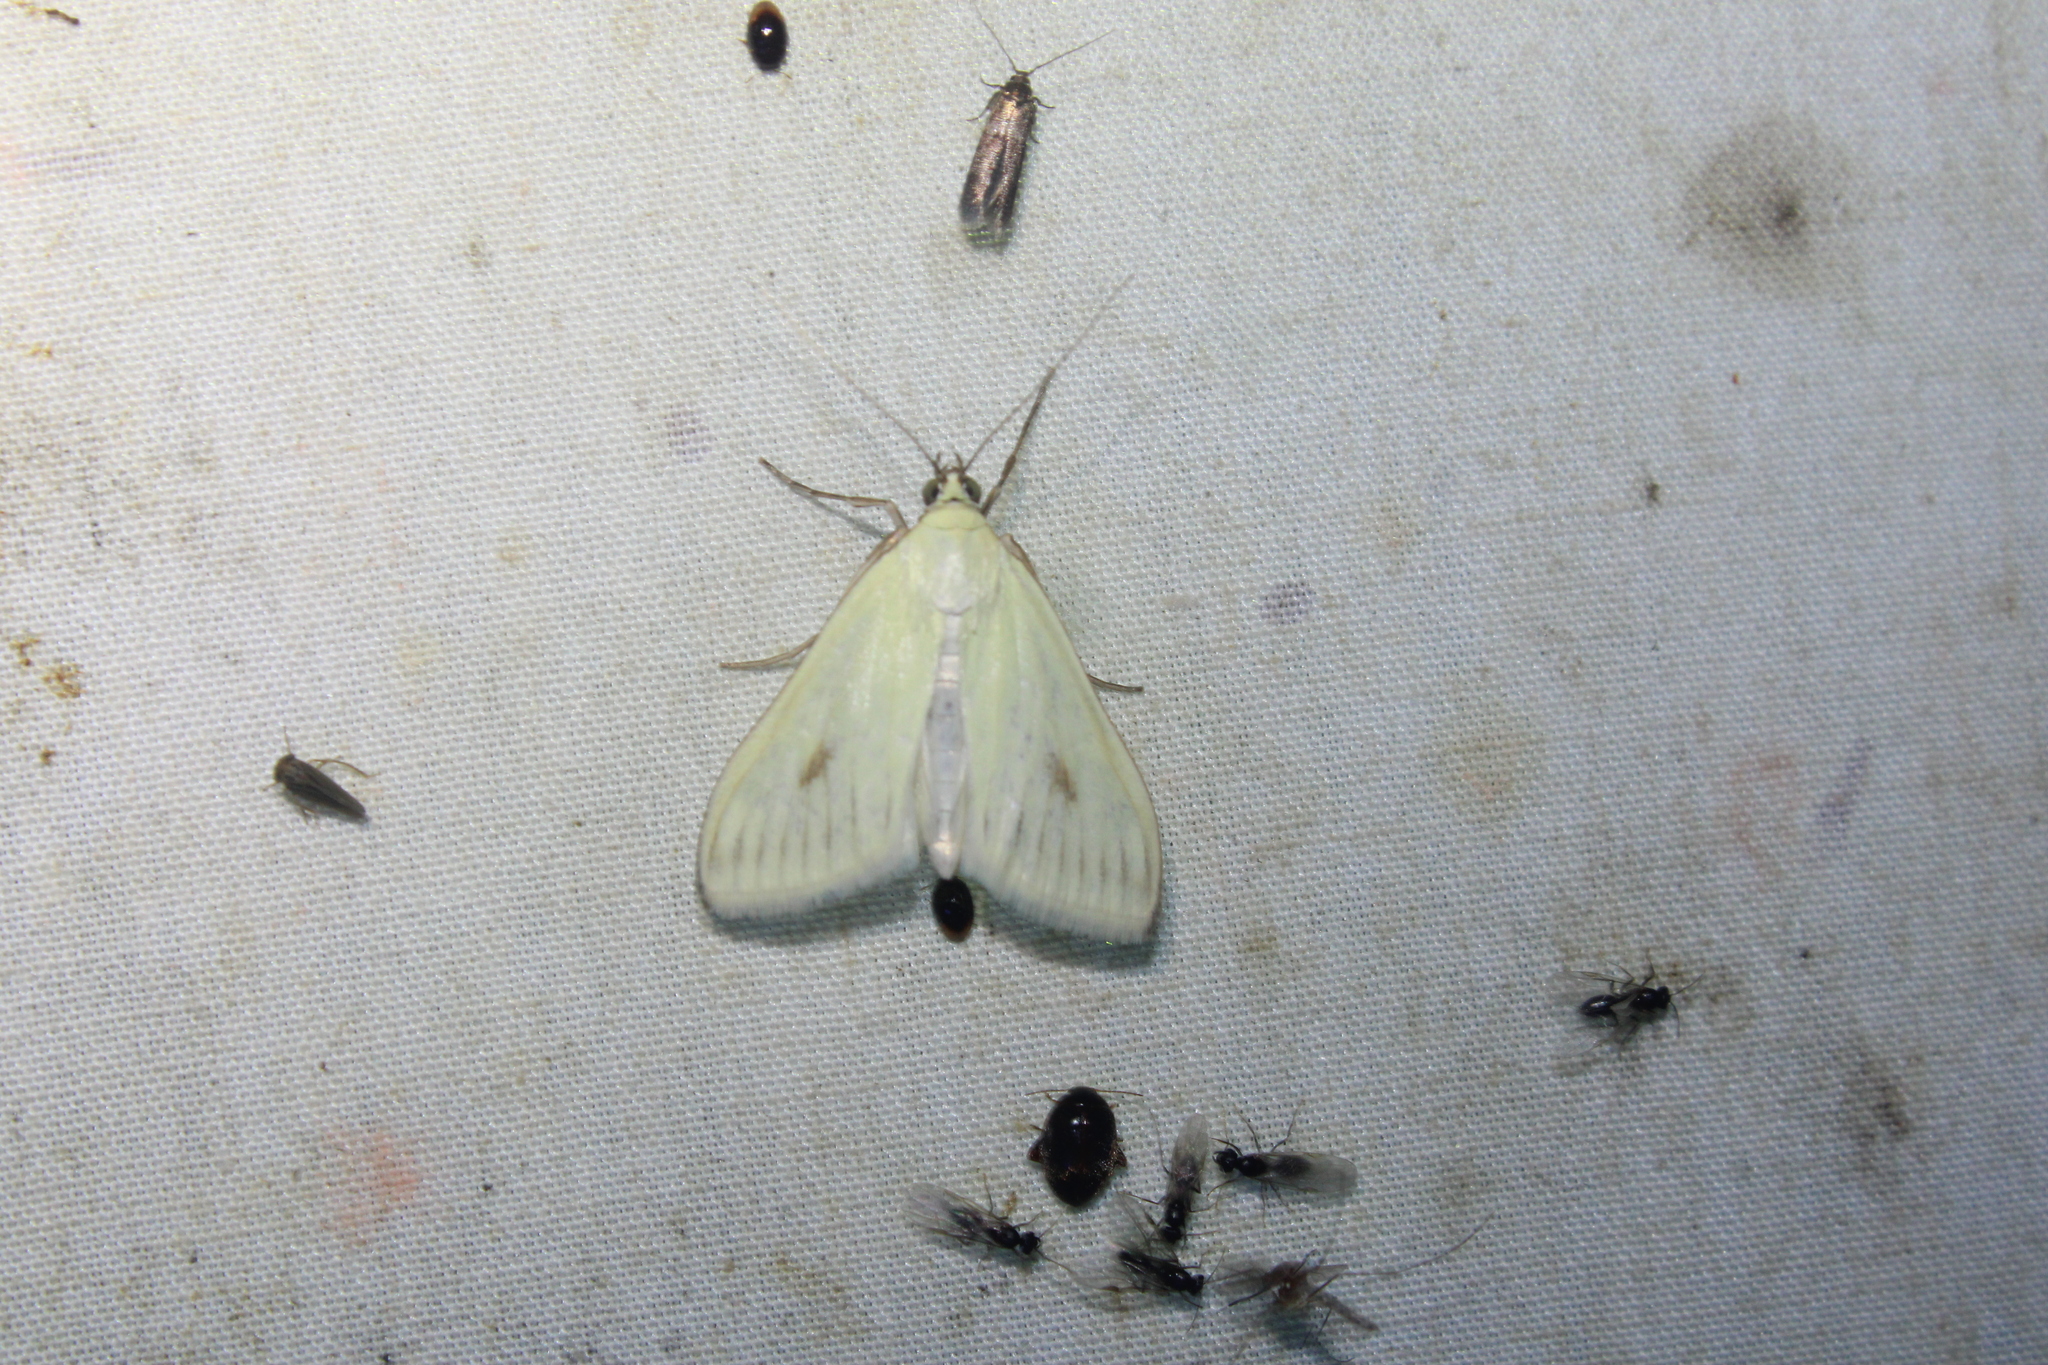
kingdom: Animalia
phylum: Arthropoda
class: Insecta
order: Lepidoptera
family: Crambidae
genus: Sitochroa
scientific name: Sitochroa palealis
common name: Greenish-yellow sitochroa moth
